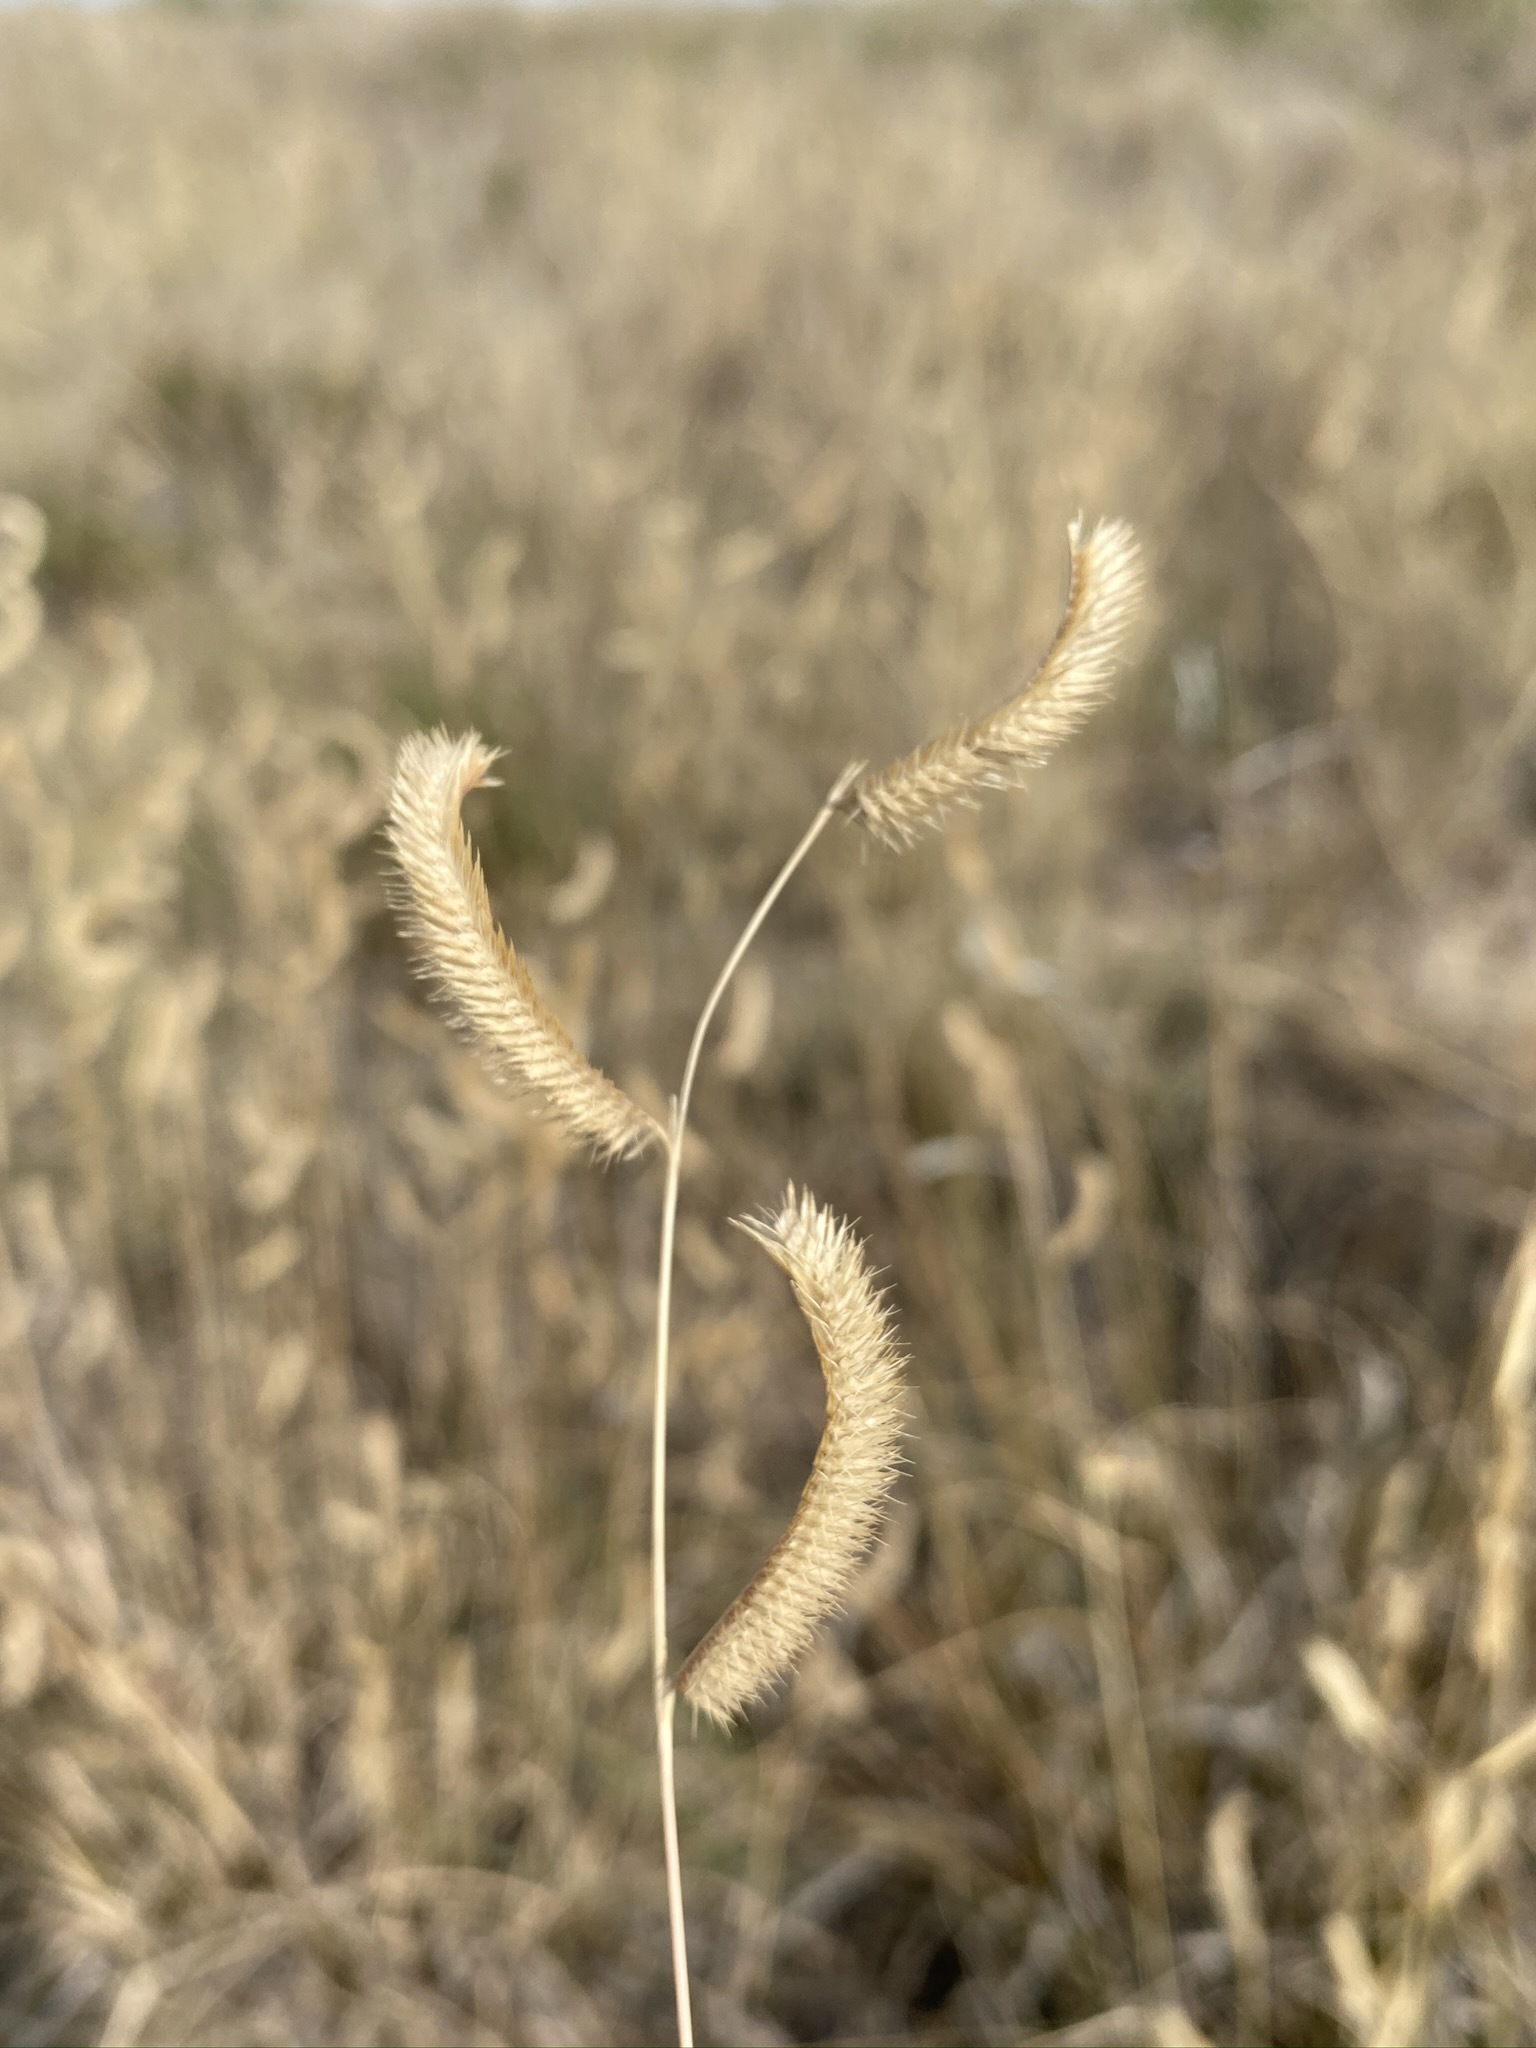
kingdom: Plantae
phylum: Tracheophyta
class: Liliopsida
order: Poales
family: Poaceae
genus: Bouteloua
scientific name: Bouteloua gracilis
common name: Blue grama
